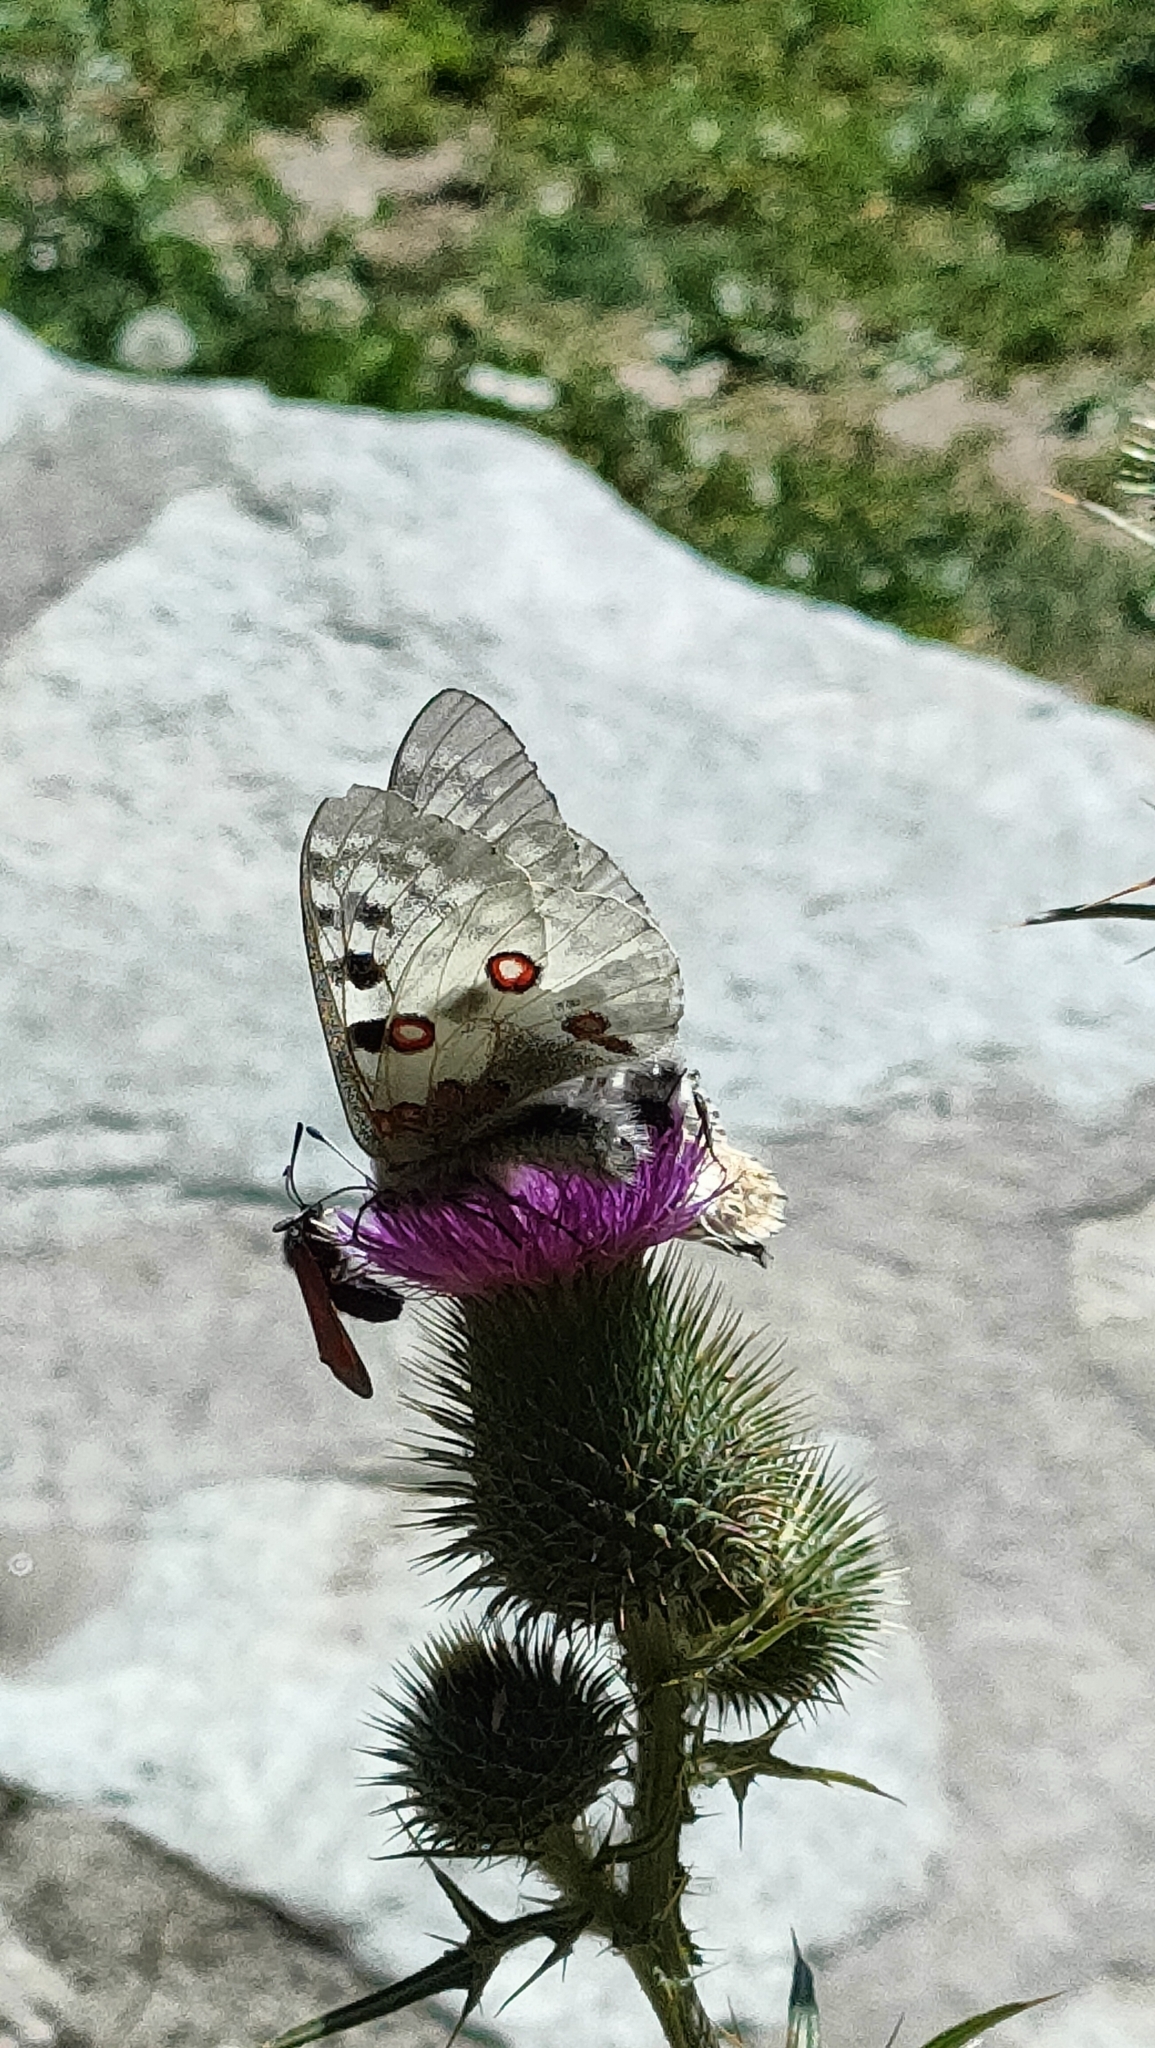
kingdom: Animalia
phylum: Arthropoda
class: Insecta
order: Lepidoptera
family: Papilionidae
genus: Parnassius
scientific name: Parnassius apollo
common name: Apollo
